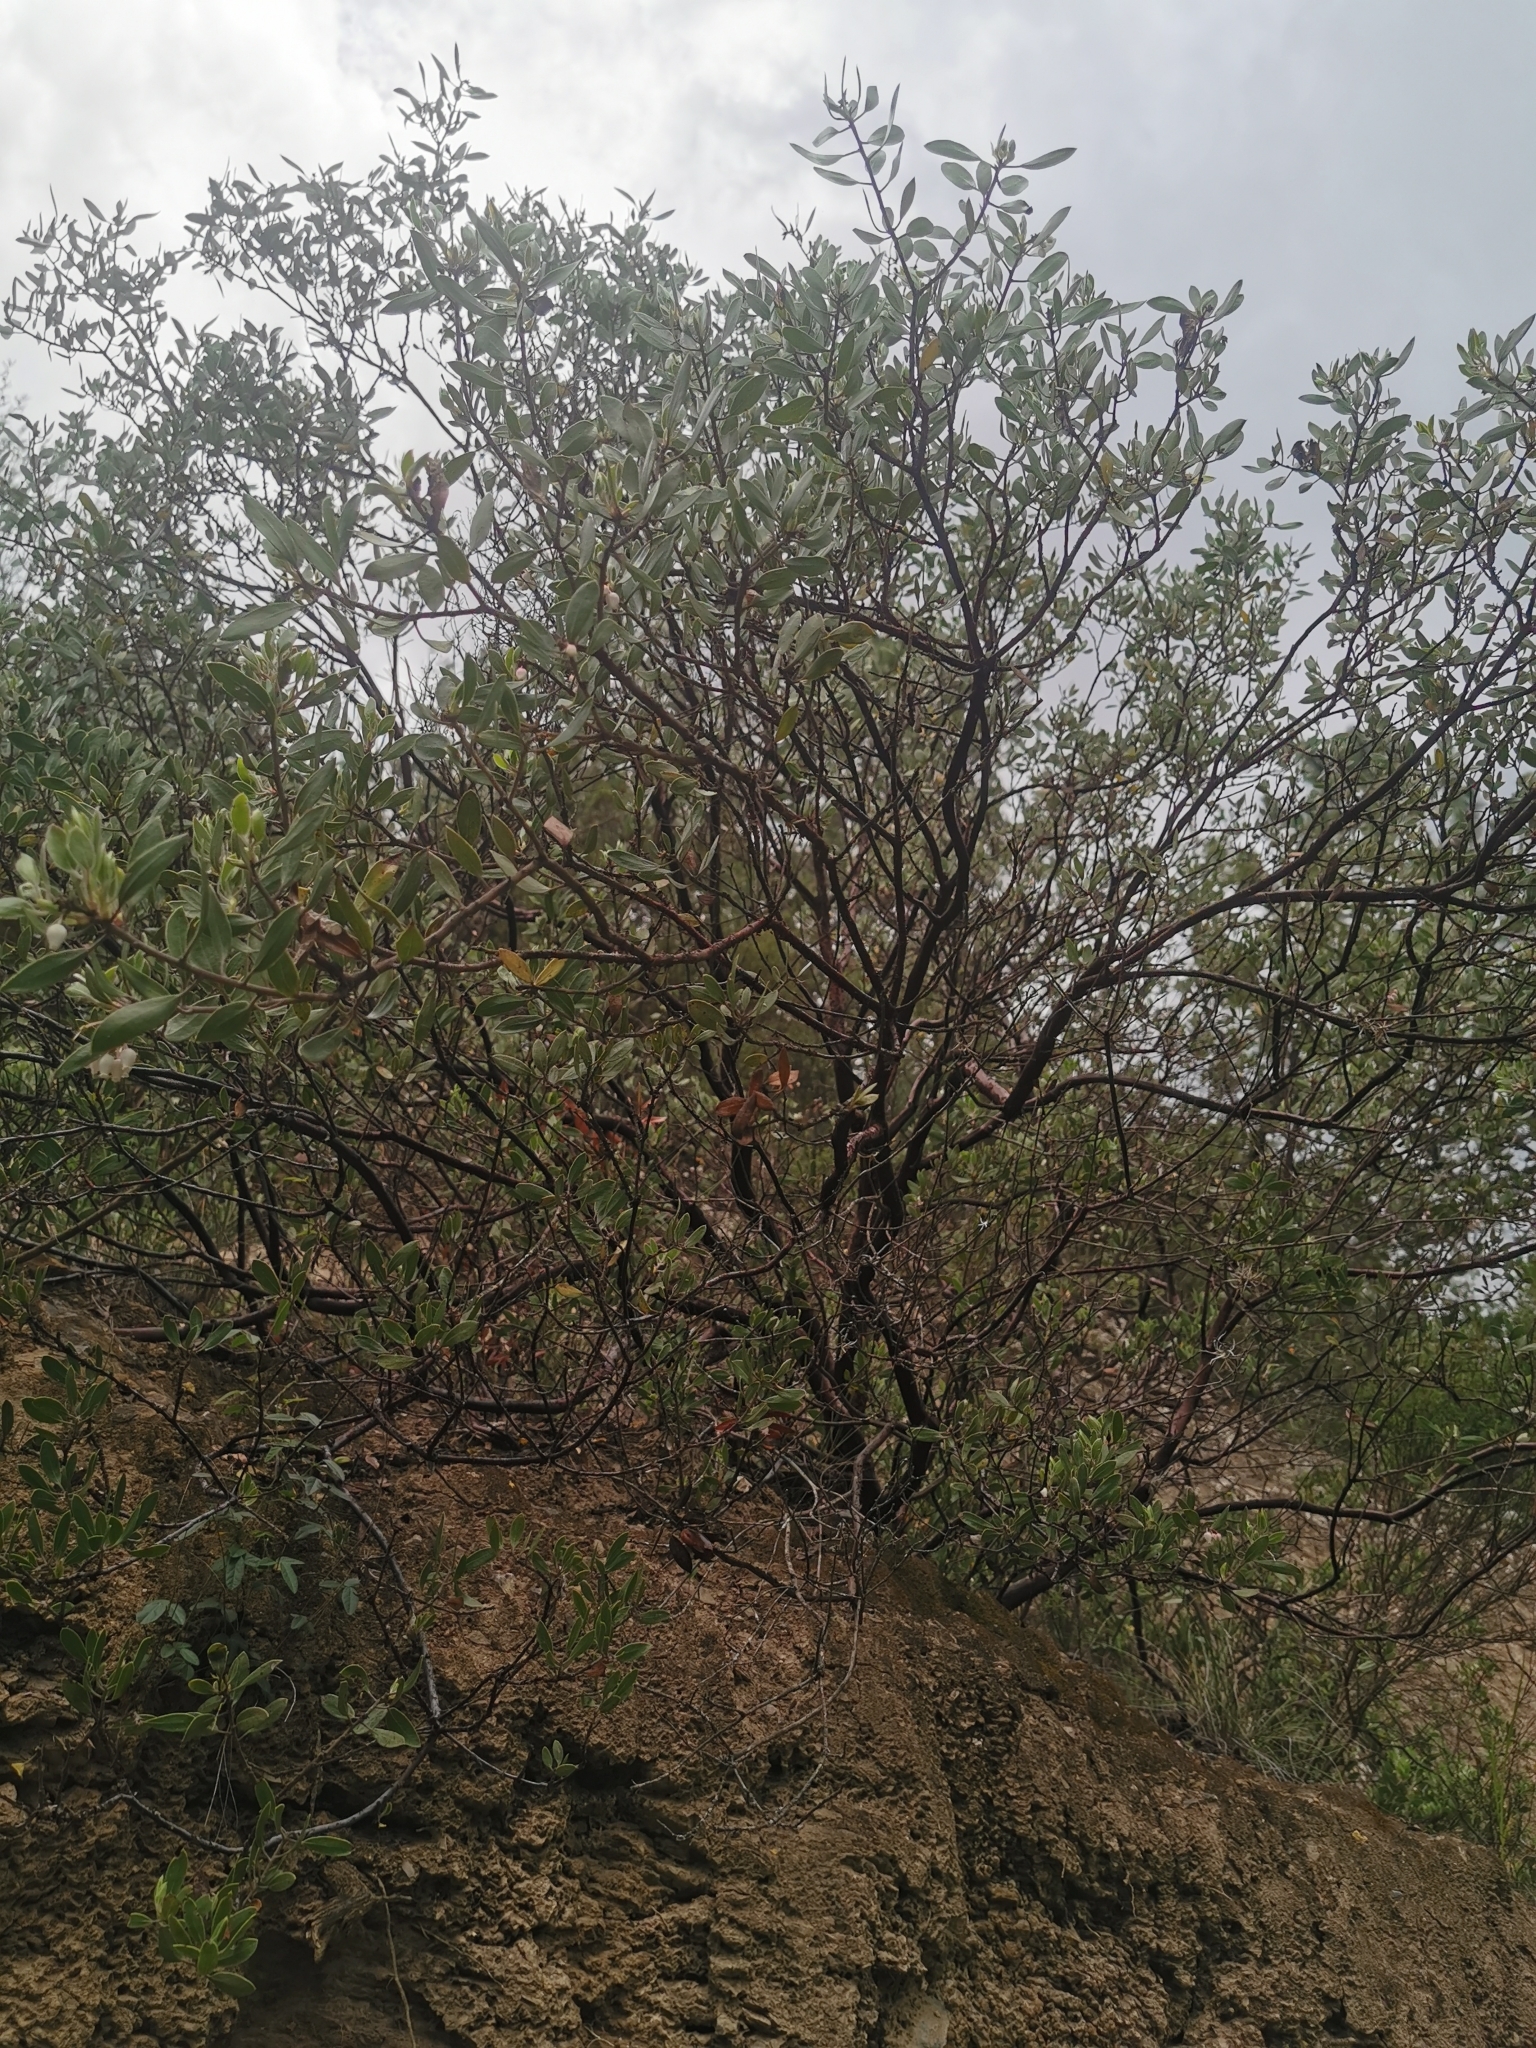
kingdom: Plantae
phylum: Tracheophyta
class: Magnoliopsida
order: Ericales
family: Ericaceae
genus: Arctostaphylos
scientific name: Arctostaphylos pungens
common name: Mexican manzanita
